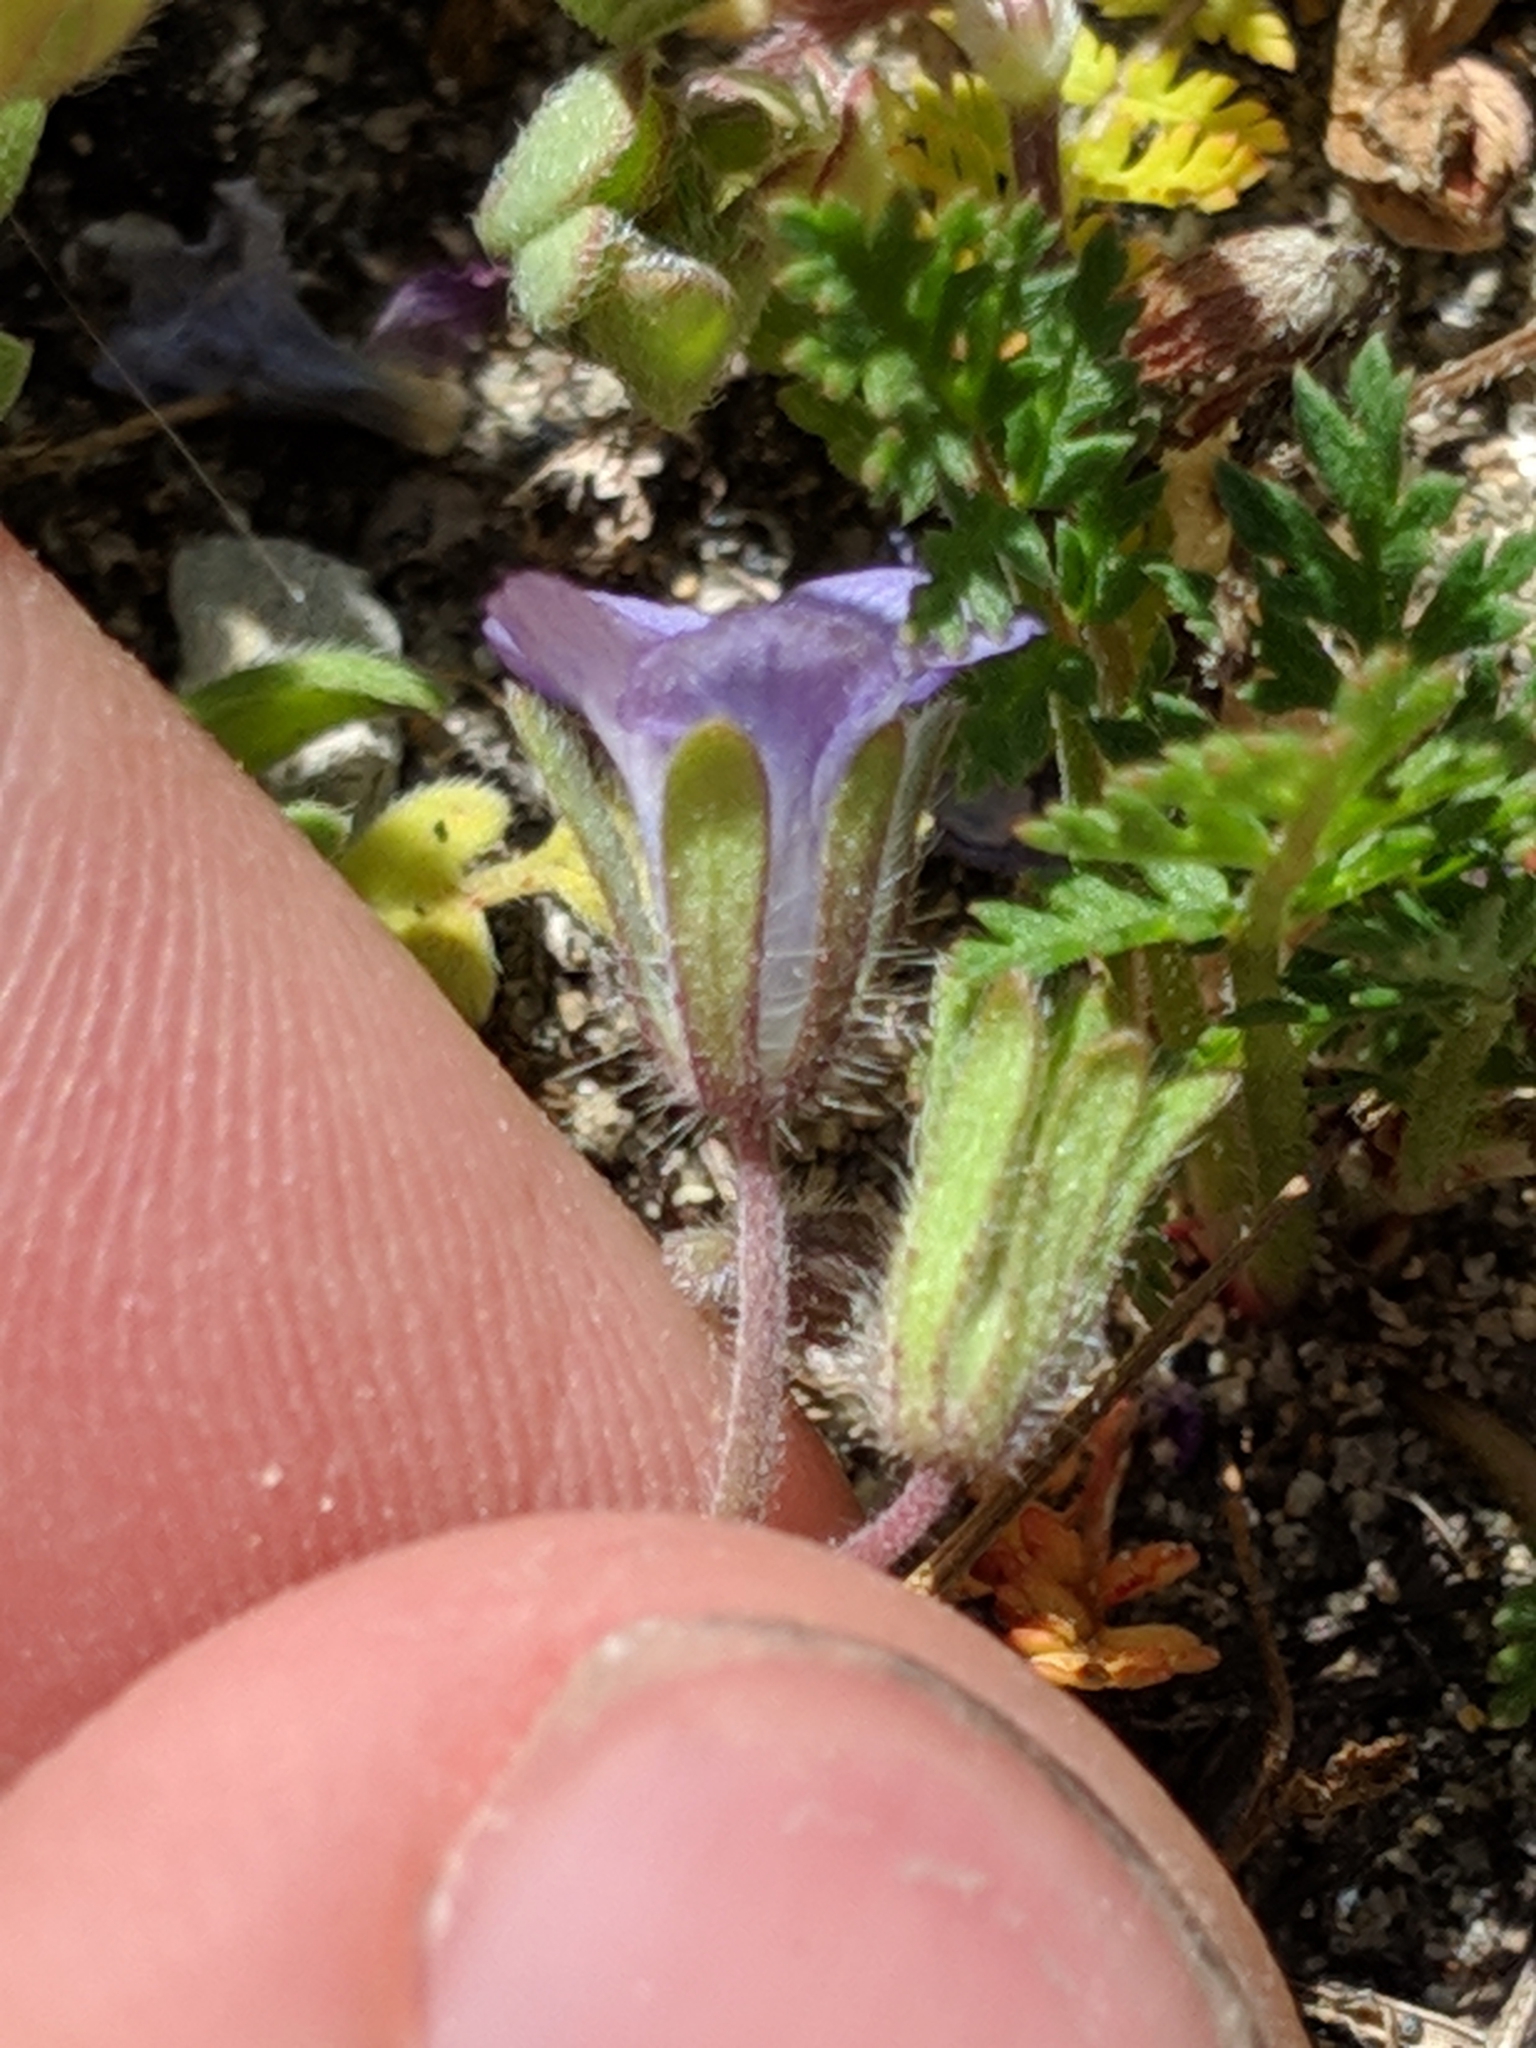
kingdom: Plantae
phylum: Tracheophyta
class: Magnoliopsida
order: Boraginales
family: Hydrophyllaceae
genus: Phacelia
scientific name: Phacelia douglasii
